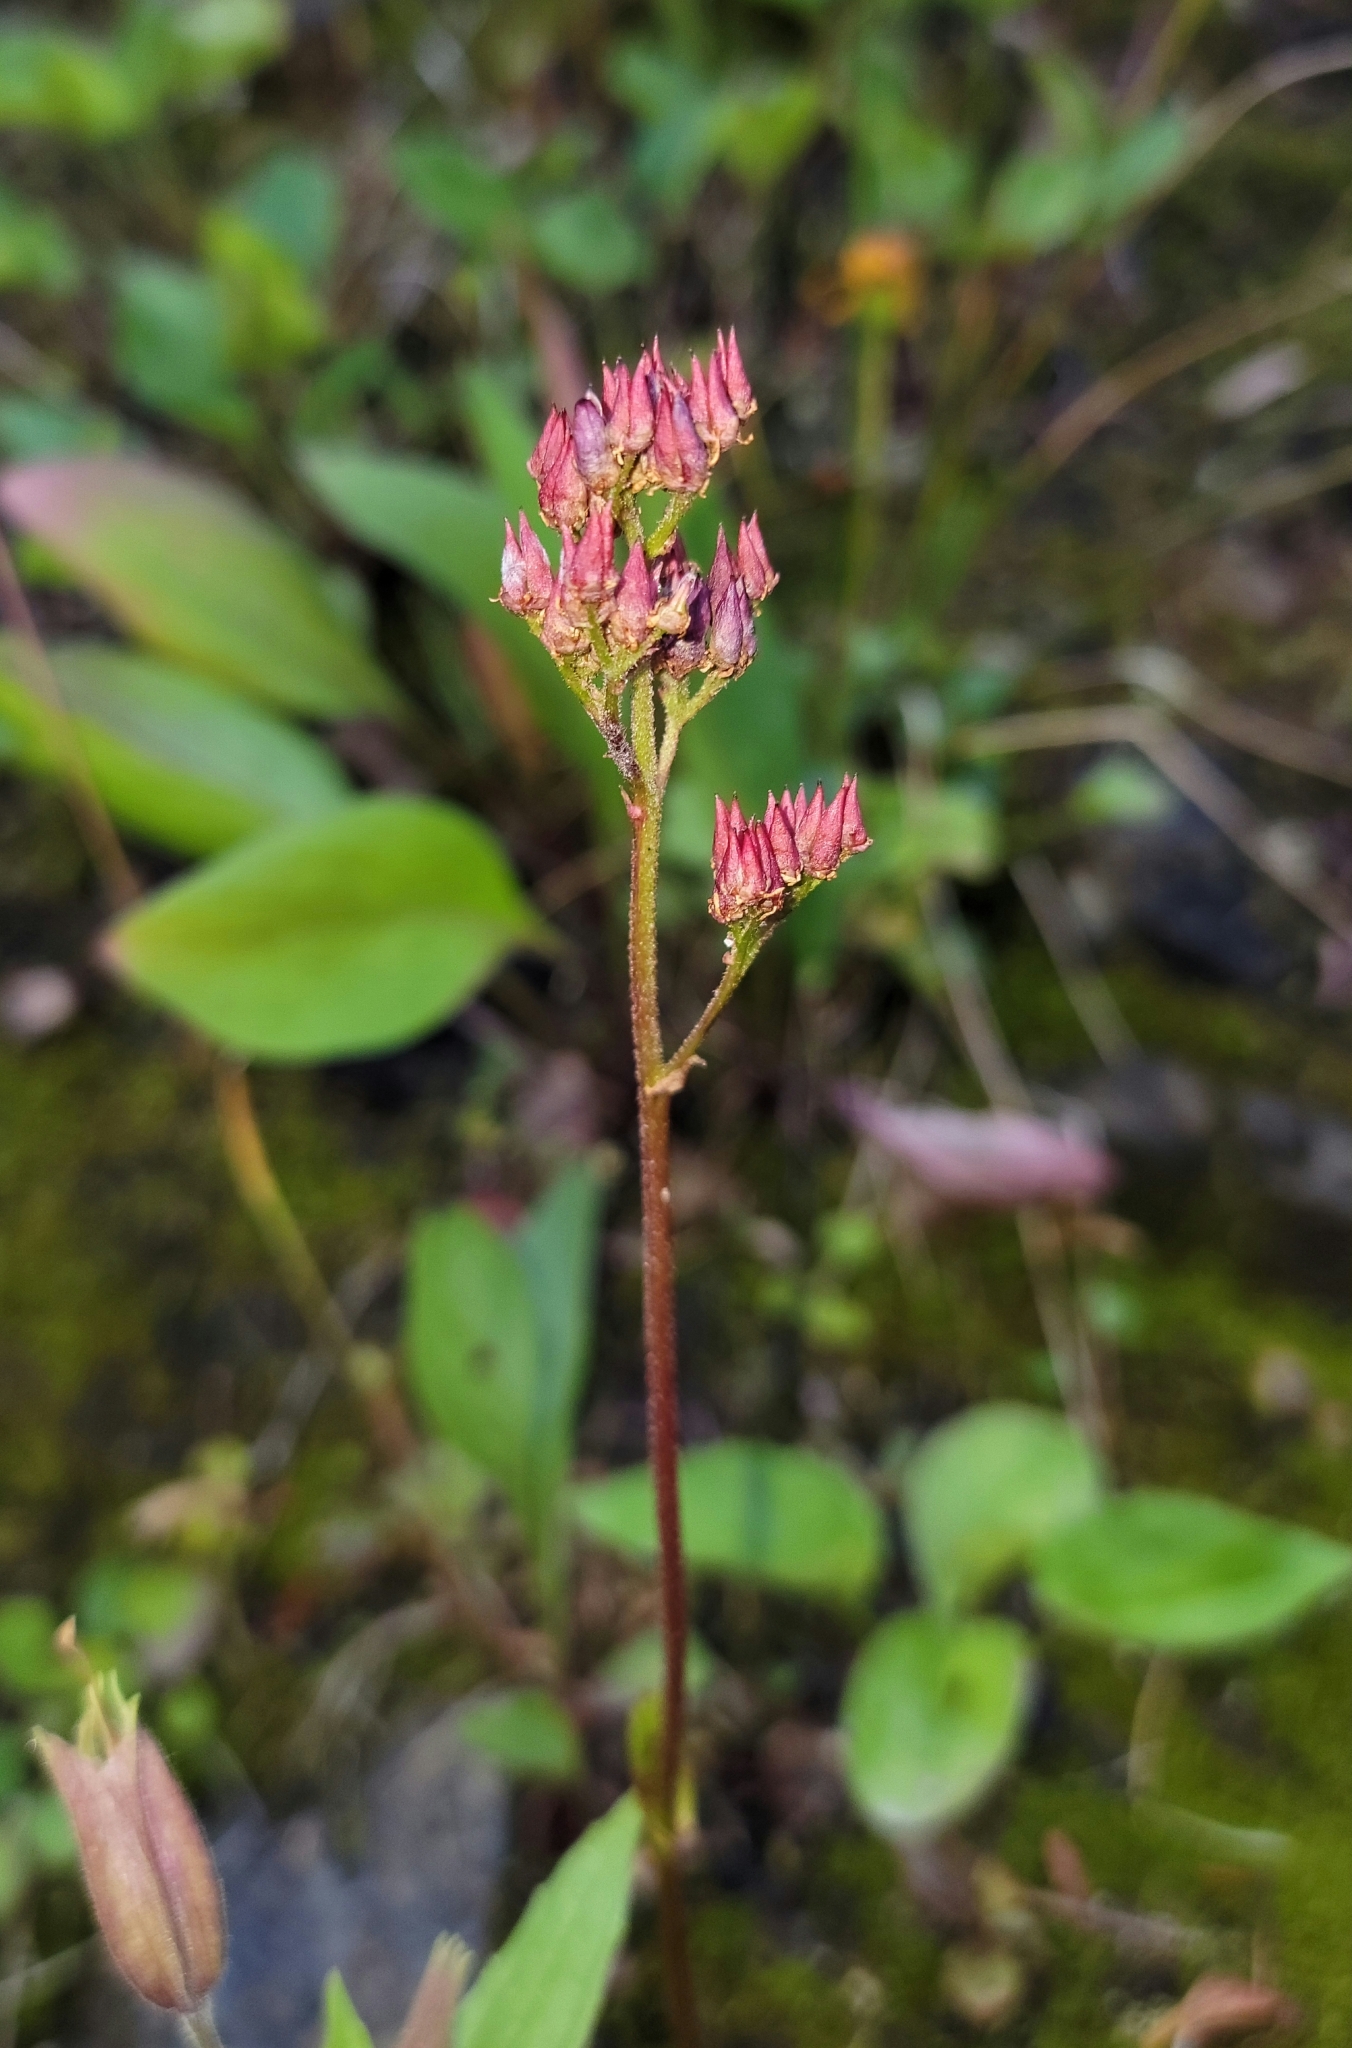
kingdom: Plantae
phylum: Tracheophyta
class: Magnoliopsida
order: Saxifragales
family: Saxifragaceae
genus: Leptarrhena
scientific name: Leptarrhena pyrolifolia
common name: Leatherleaf-saxifrage
